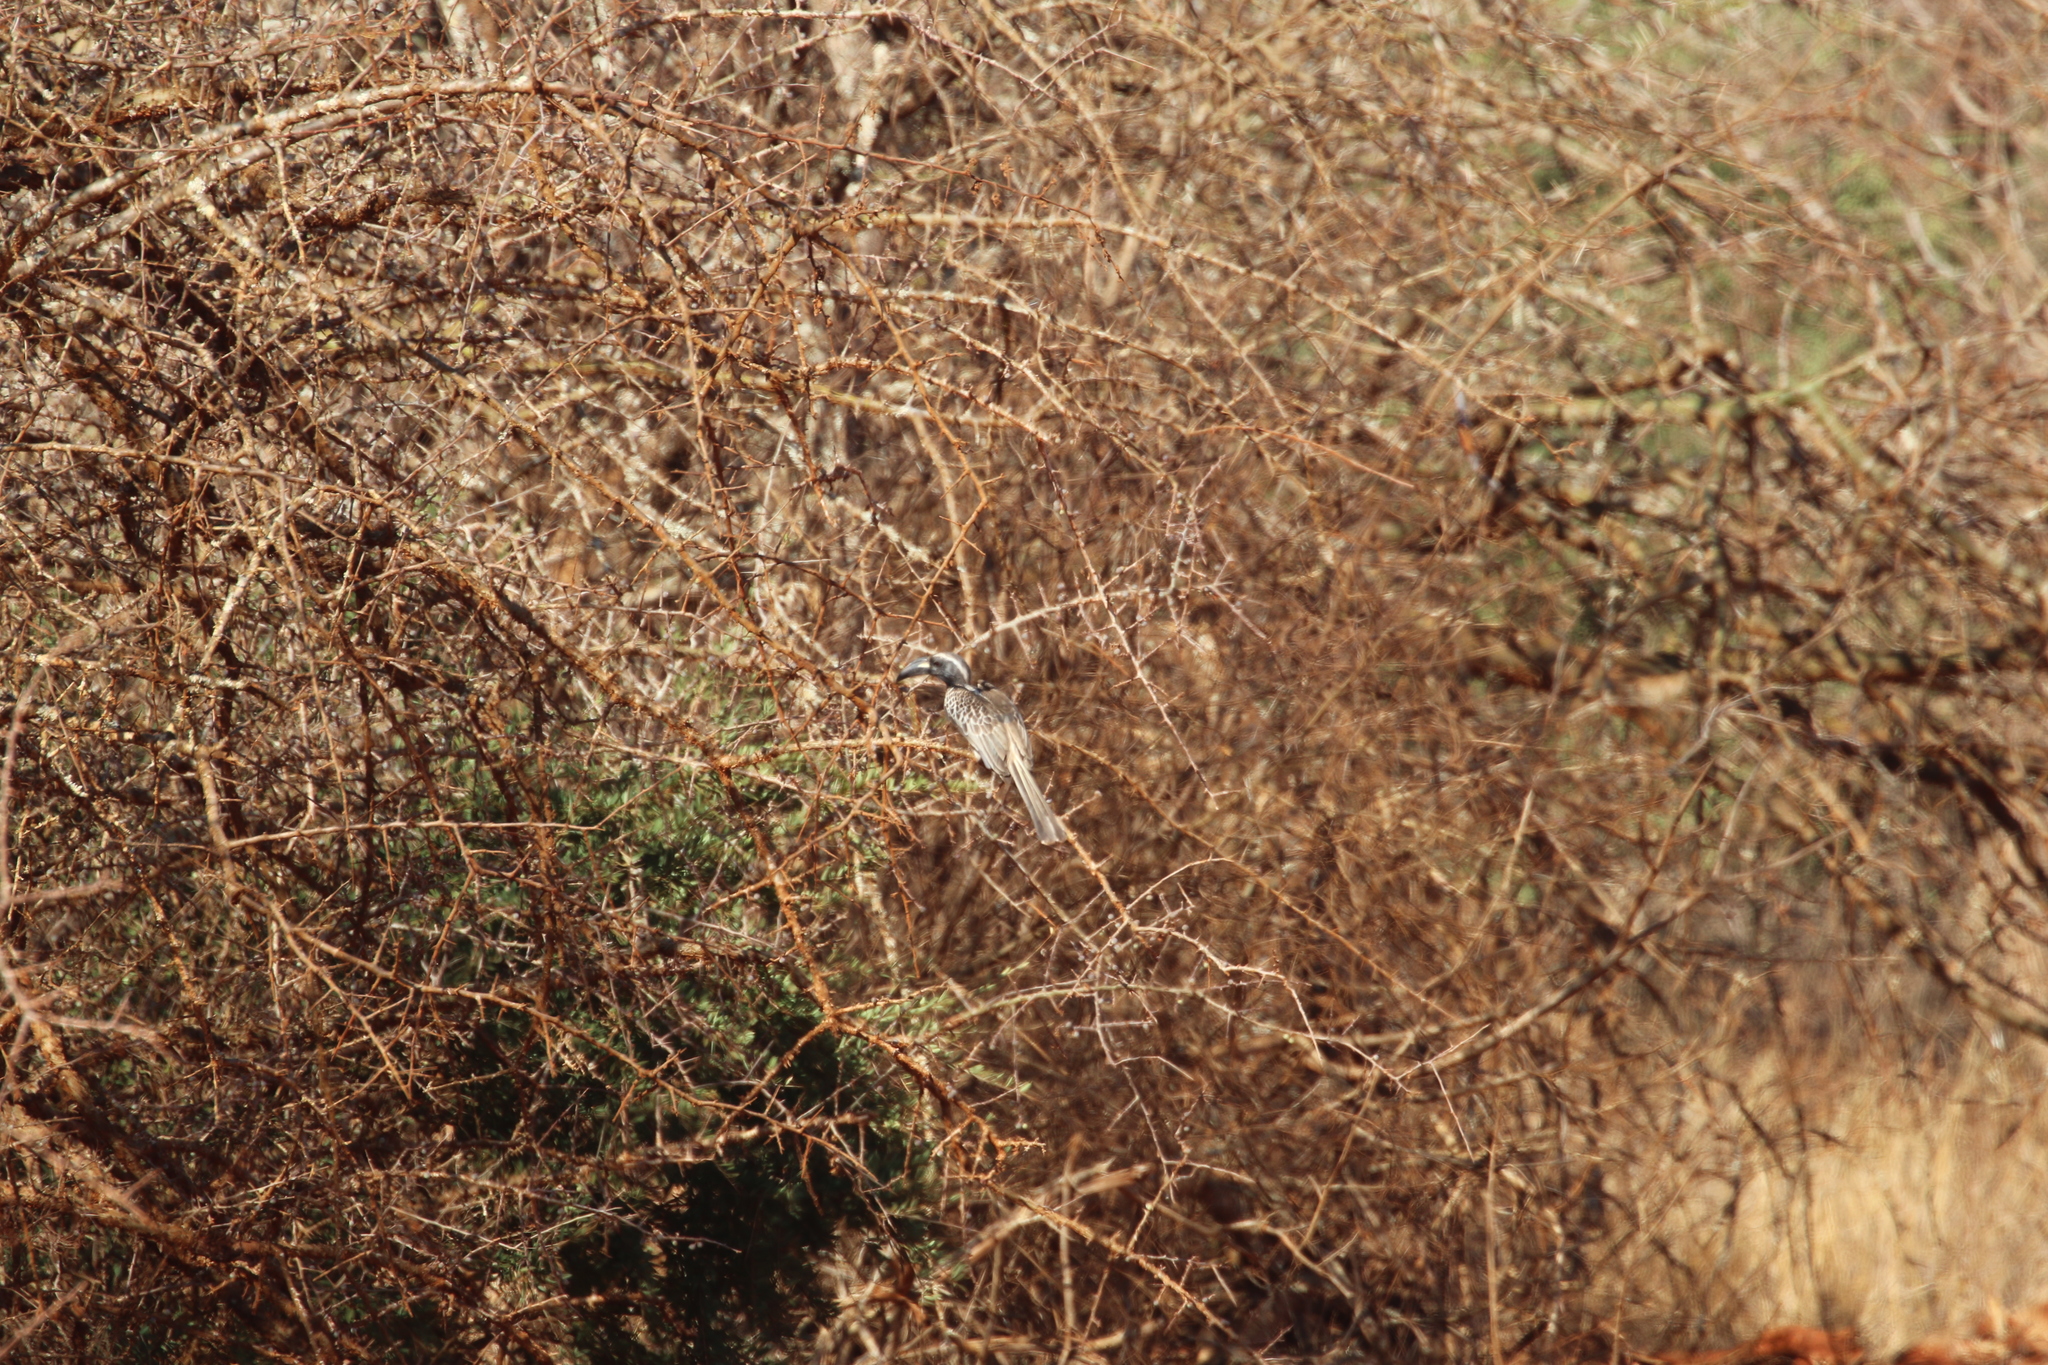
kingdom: Animalia
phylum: Chordata
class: Aves
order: Bucerotiformes
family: Bucerotidae
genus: Lophoceros
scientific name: Lophoceros nasutus
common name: African grey hornbill
